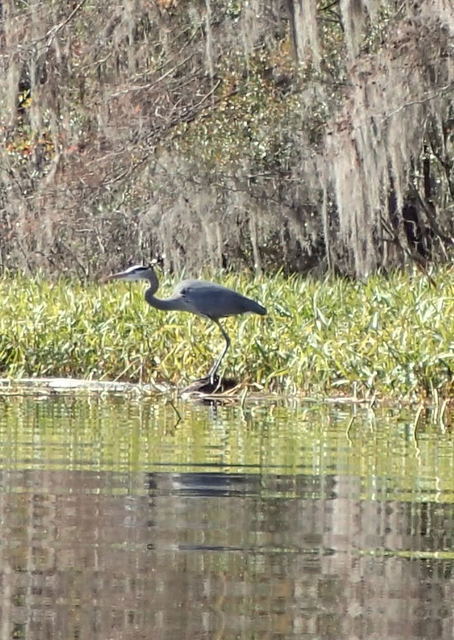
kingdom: Animalia
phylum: Chordata
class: Aves
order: Pelecaniformes
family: Ardeidae
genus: Ardea
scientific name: Ardea herodias
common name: Great blue heron
